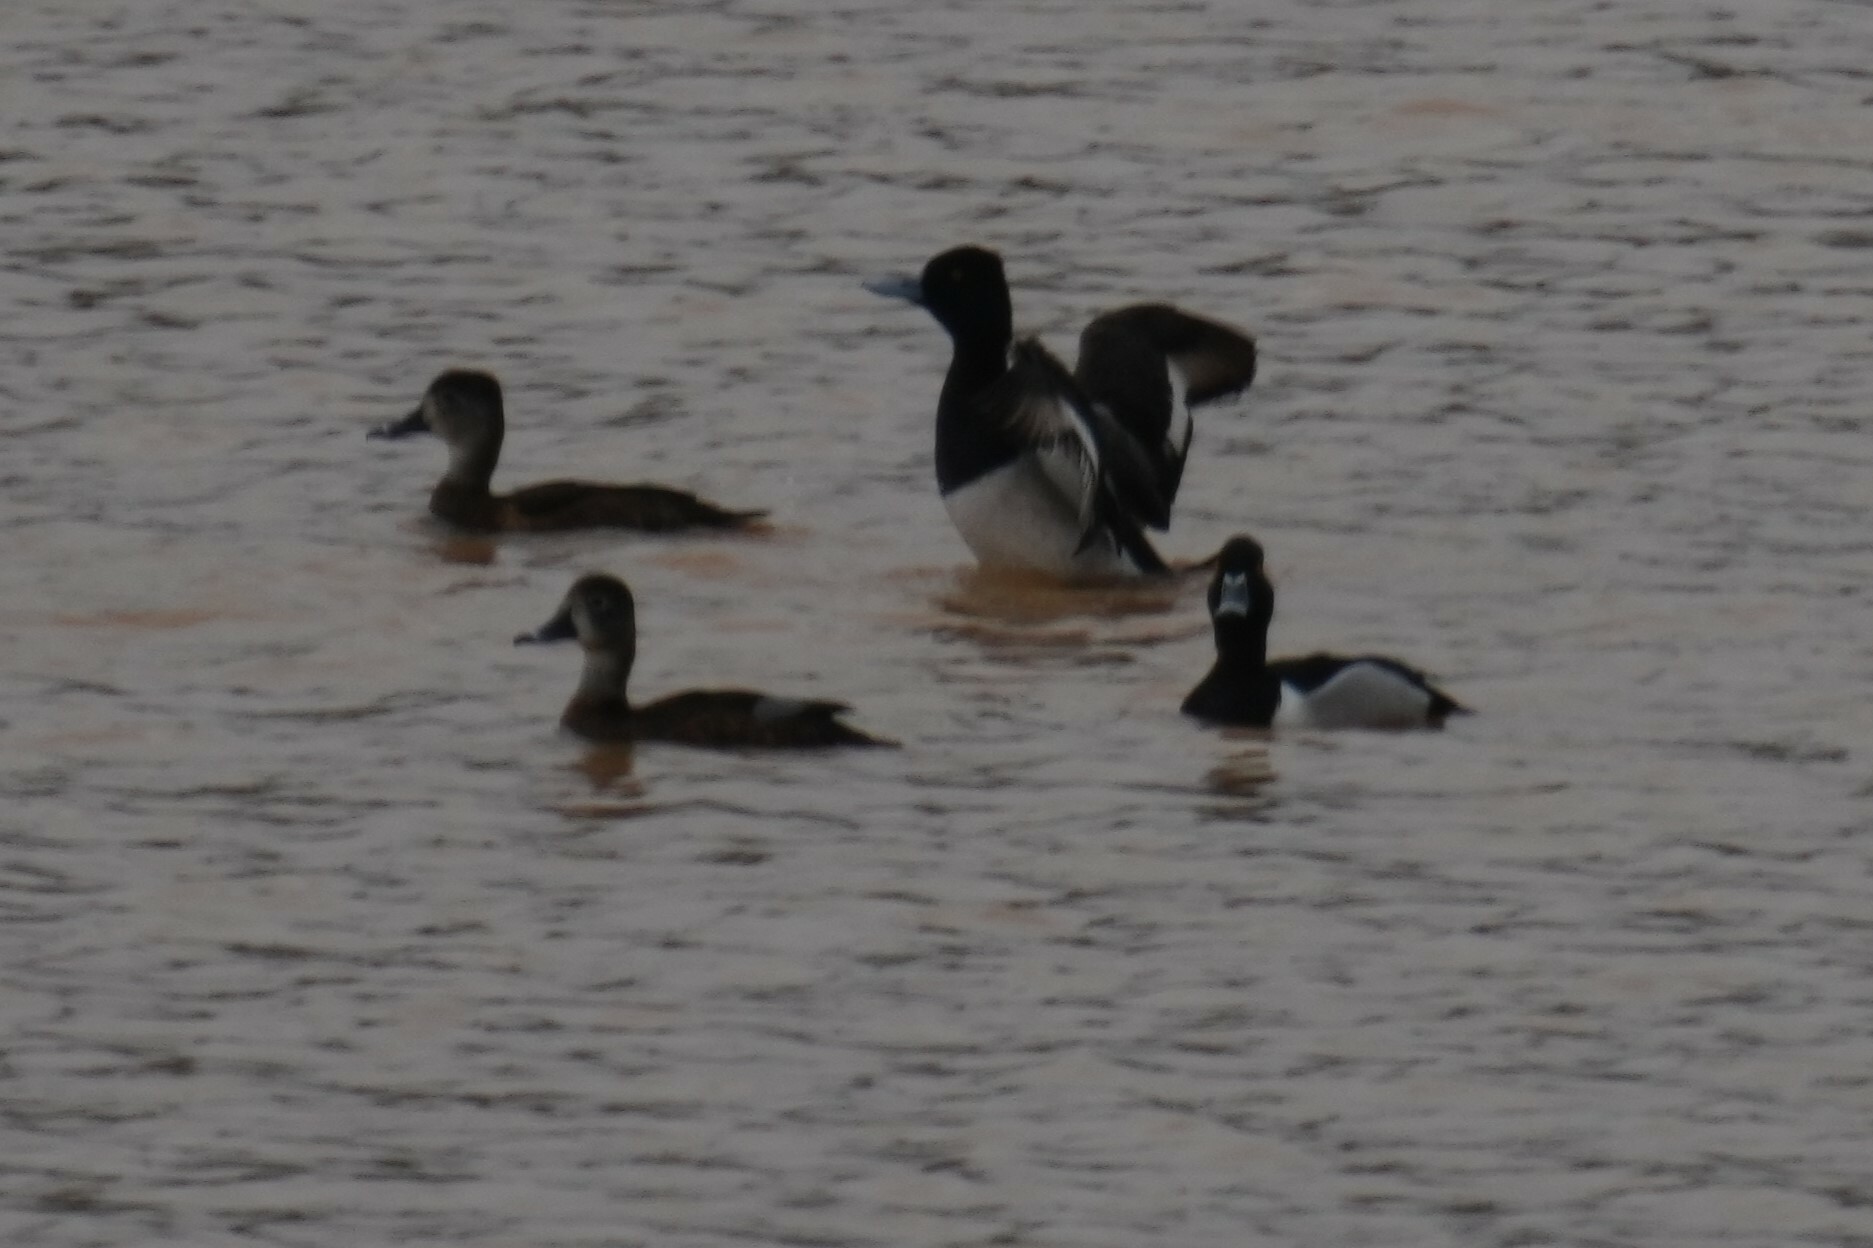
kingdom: Animalia
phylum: Chordata
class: Aves
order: Anseriformes
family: Anatidae
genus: Aythya
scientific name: Aythya collaris
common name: Ring-necked duck
